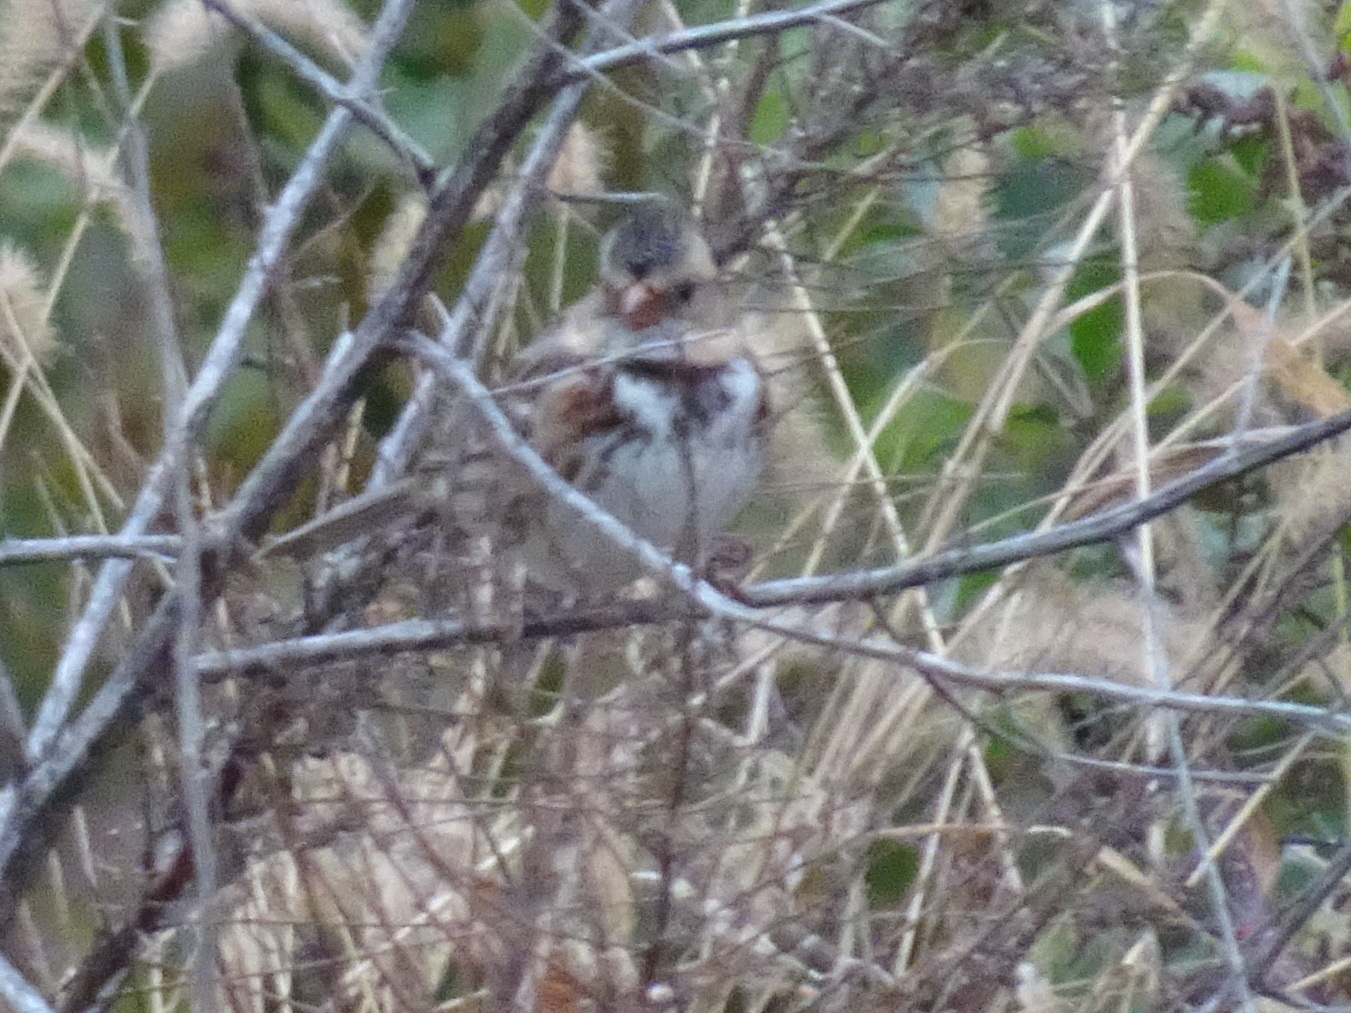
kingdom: Animalia
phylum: Chordata
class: Aves
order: Passeriformes
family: Passerellidae
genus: Zonotrichia
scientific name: Zonotrichia querula
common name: Harris's sparrow
